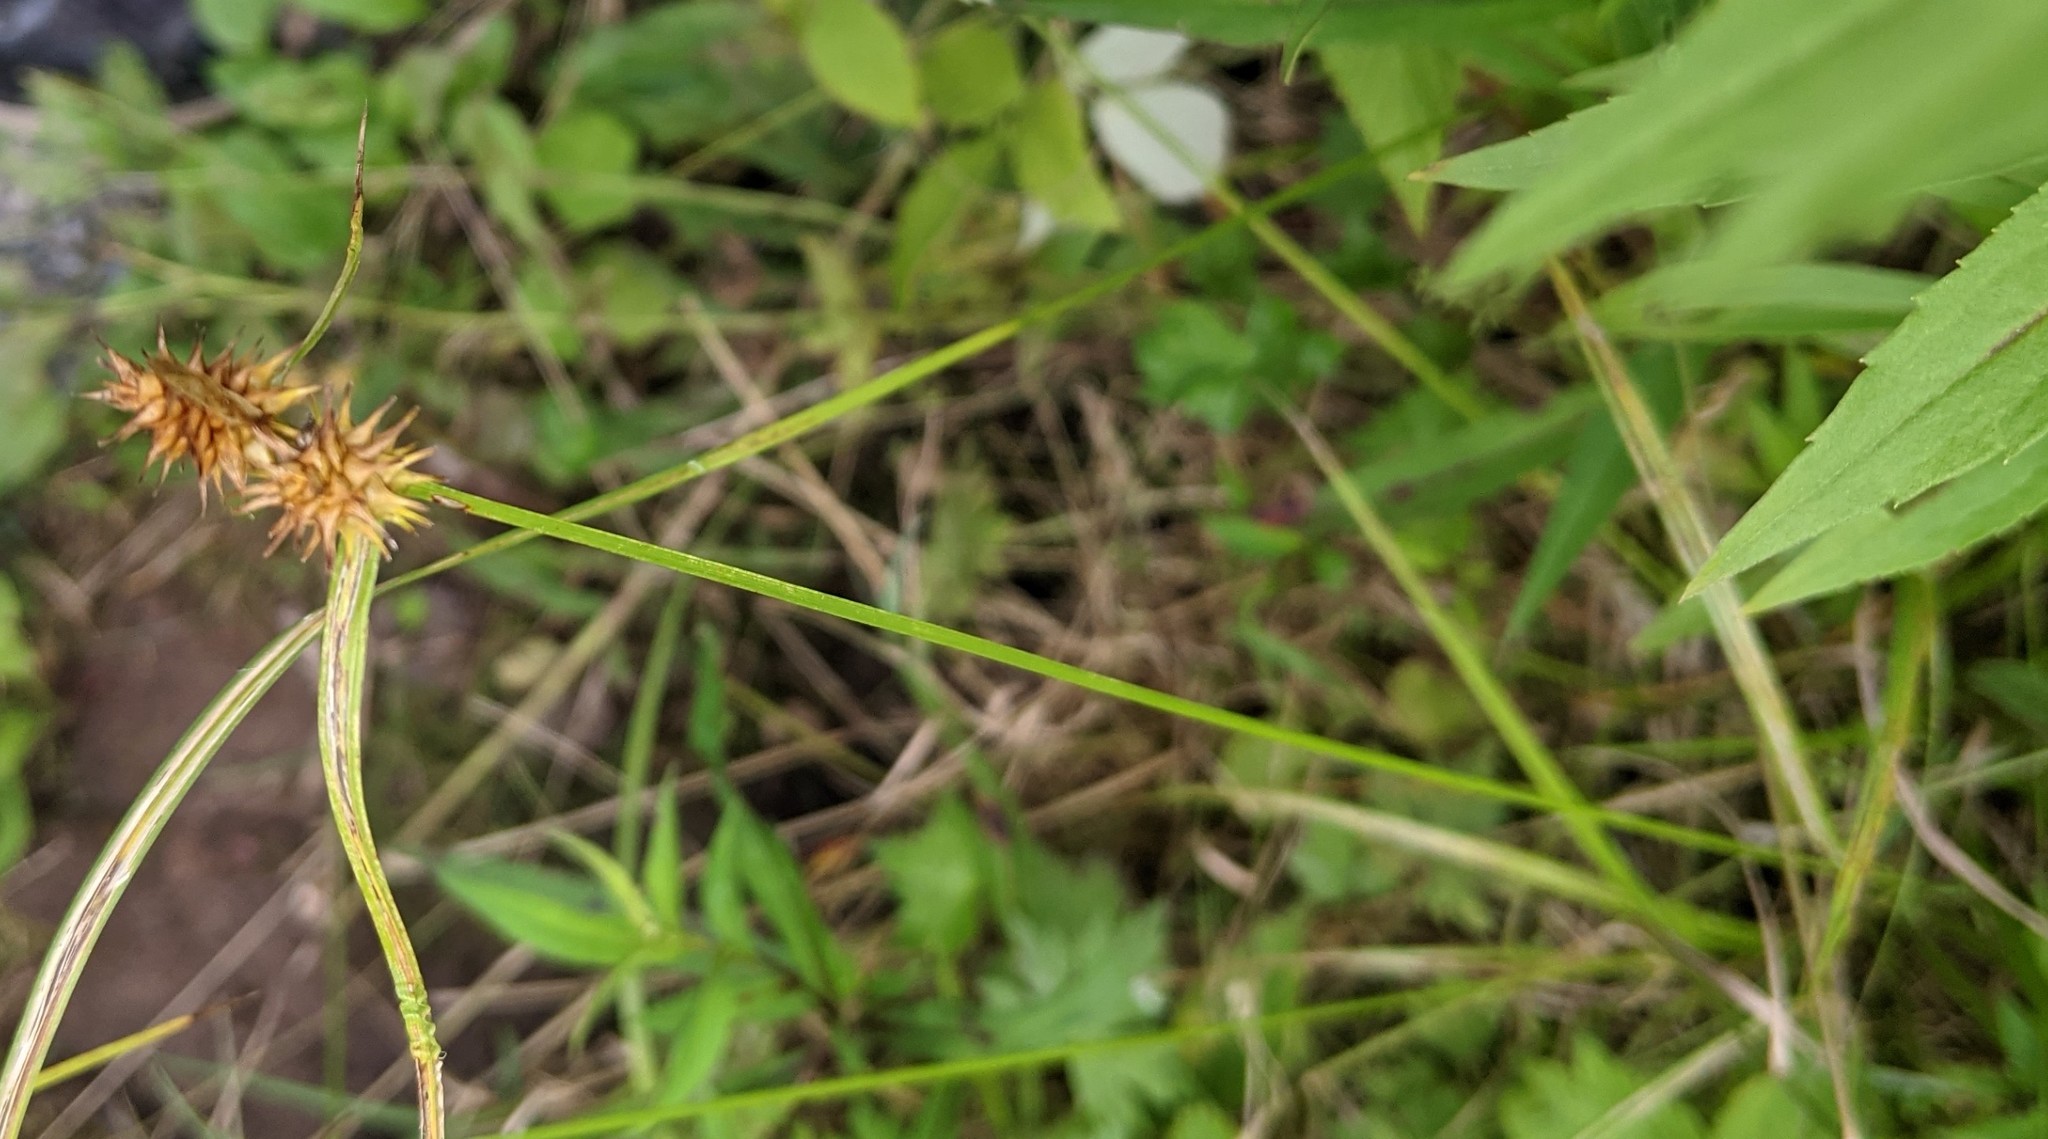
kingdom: Plantae
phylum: Tracheophyta
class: Liliopsida
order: Poales
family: Cyperaceae
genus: Carex
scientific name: Carex flava
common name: Large yellow-sedge
